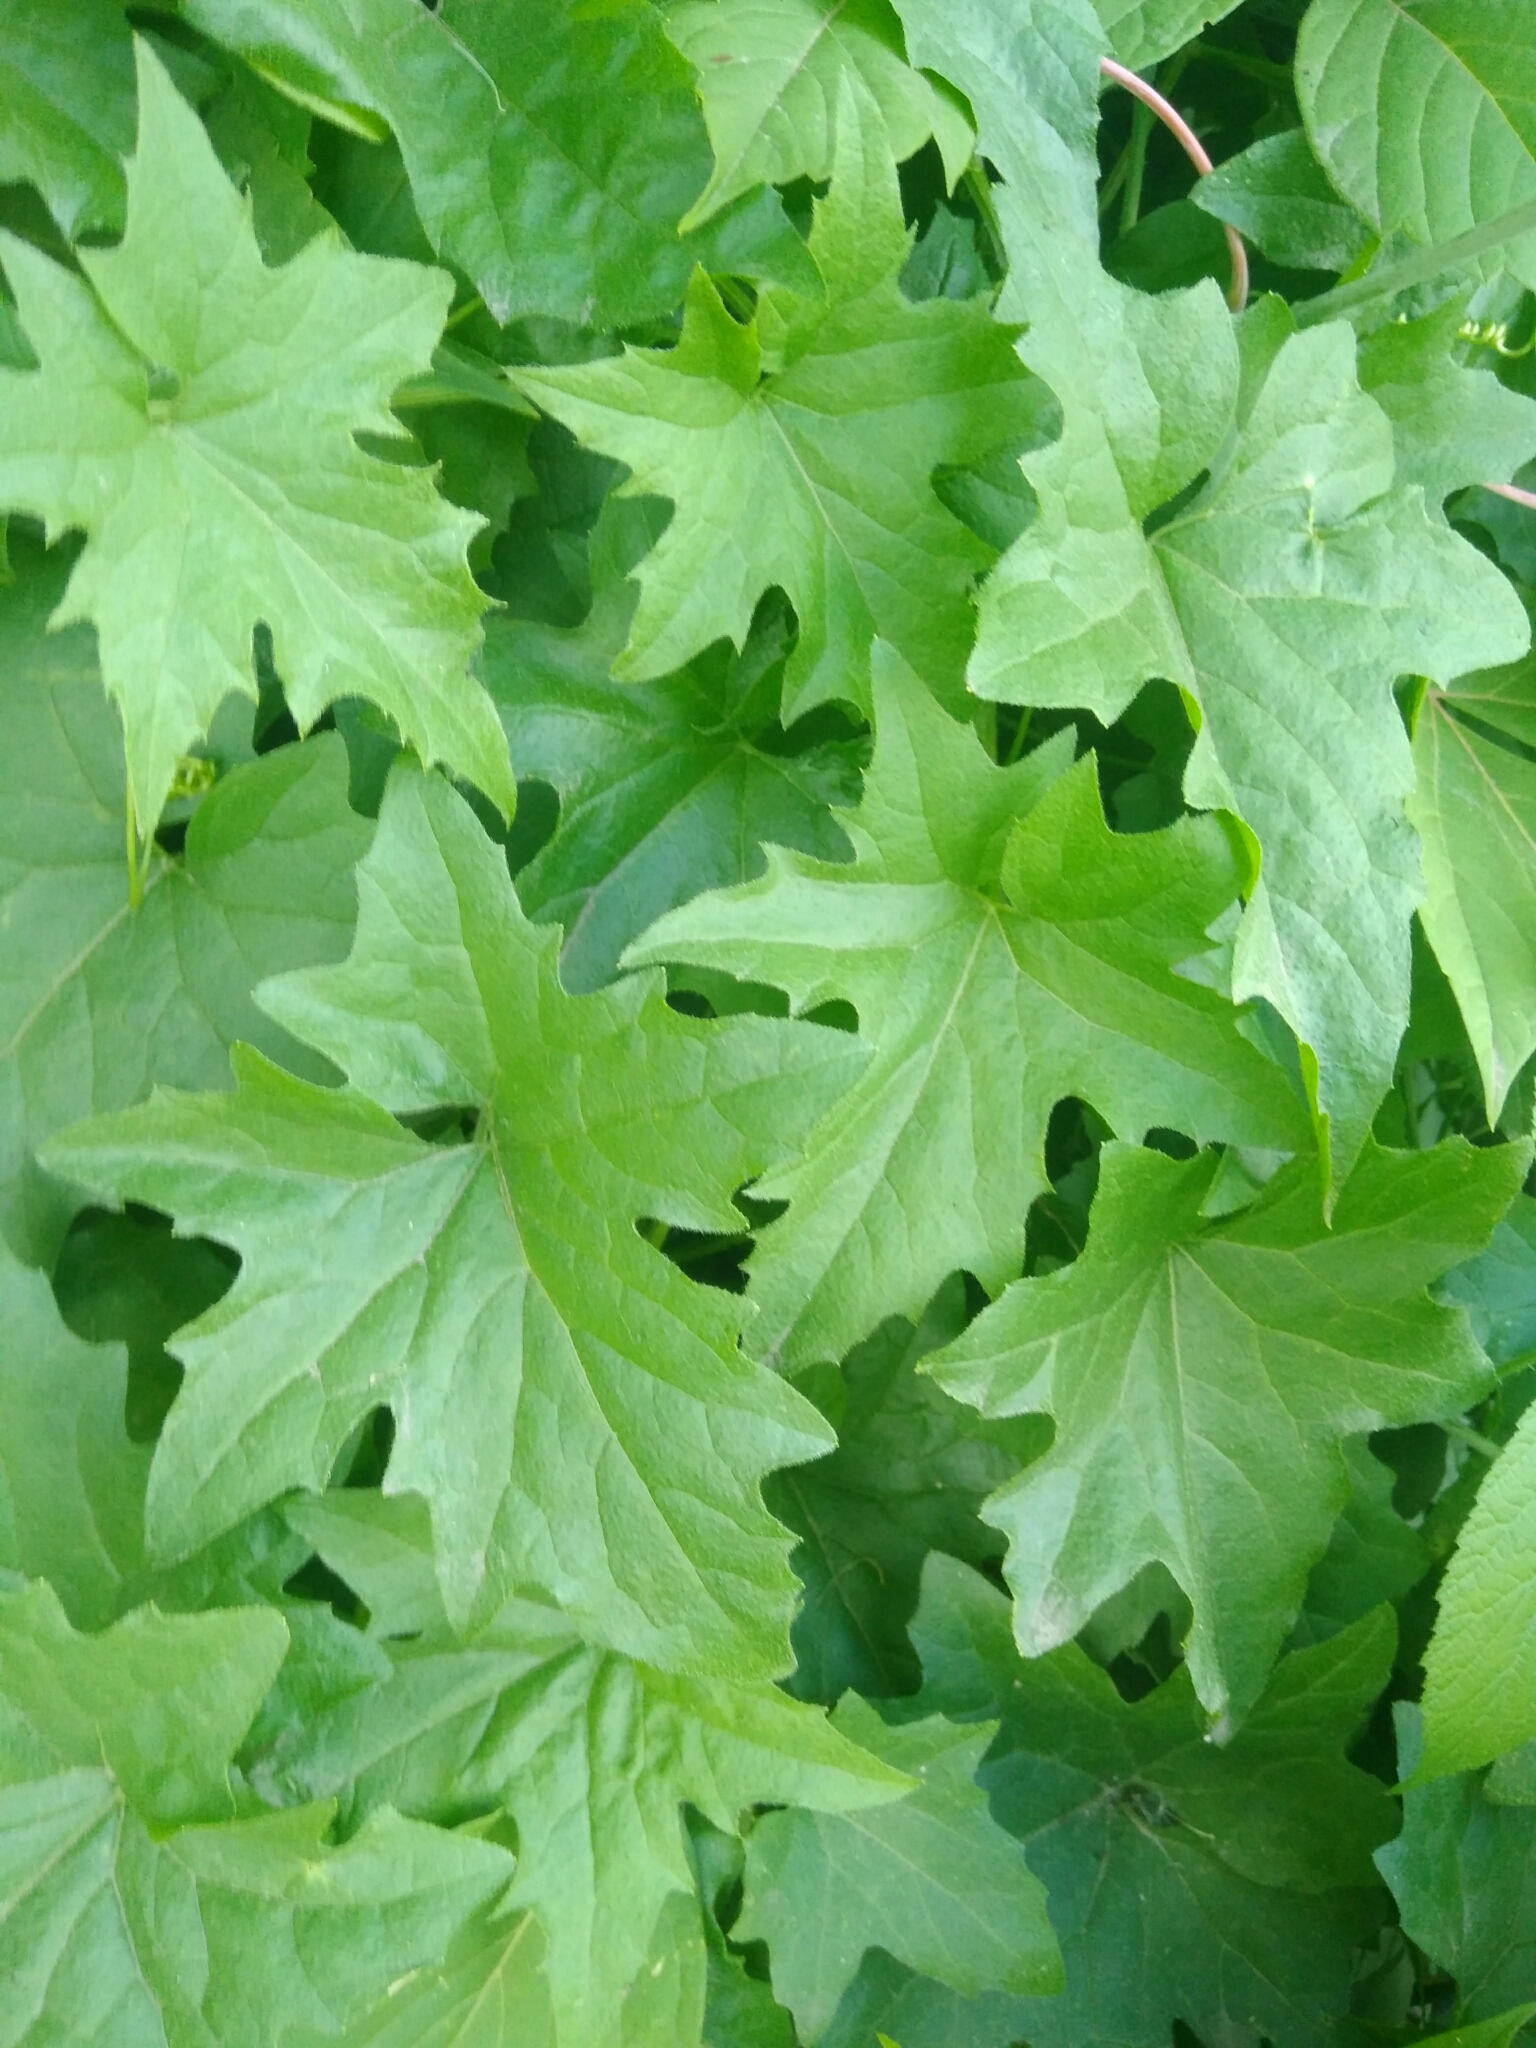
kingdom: Plantae
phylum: Tracheophyta
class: Magnoliopsida
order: Cucurbitales
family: Cucurbitaceae
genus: Bryonia
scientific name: Bryonia alba
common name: White bryony
